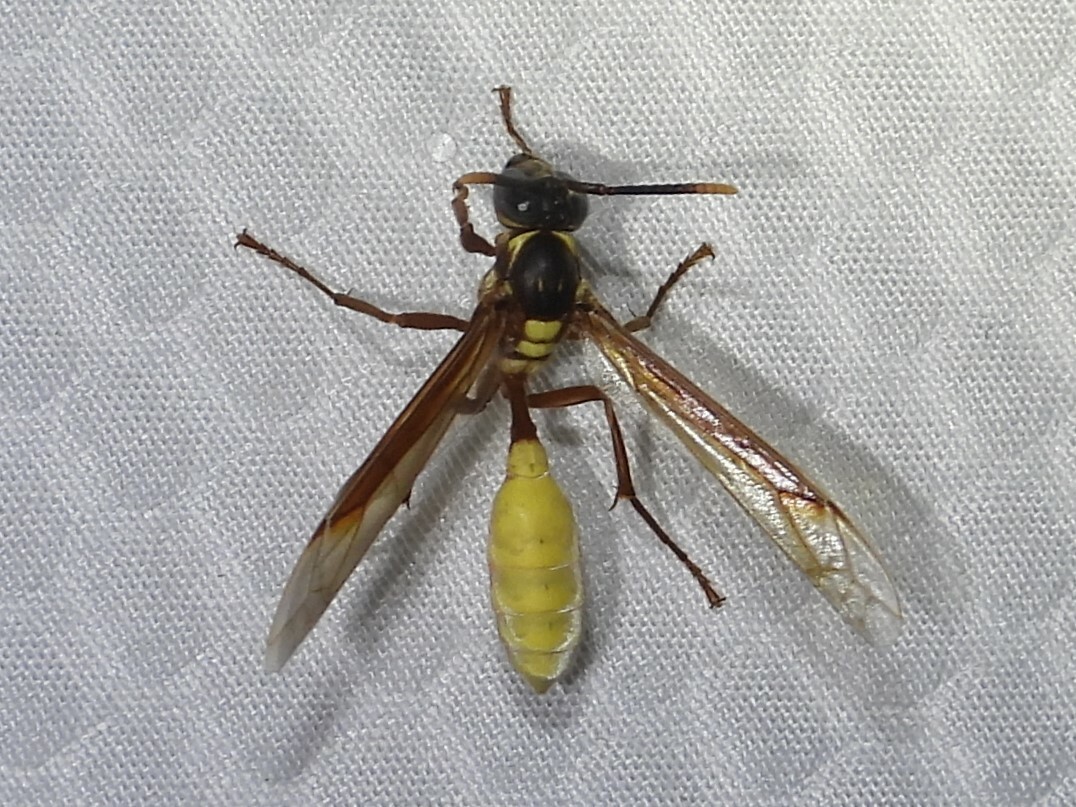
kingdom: Animalia
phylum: Arthropoda
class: Insecta
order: Hymenoptera
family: Vespidae
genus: Apoica
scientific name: Apoica pallens
